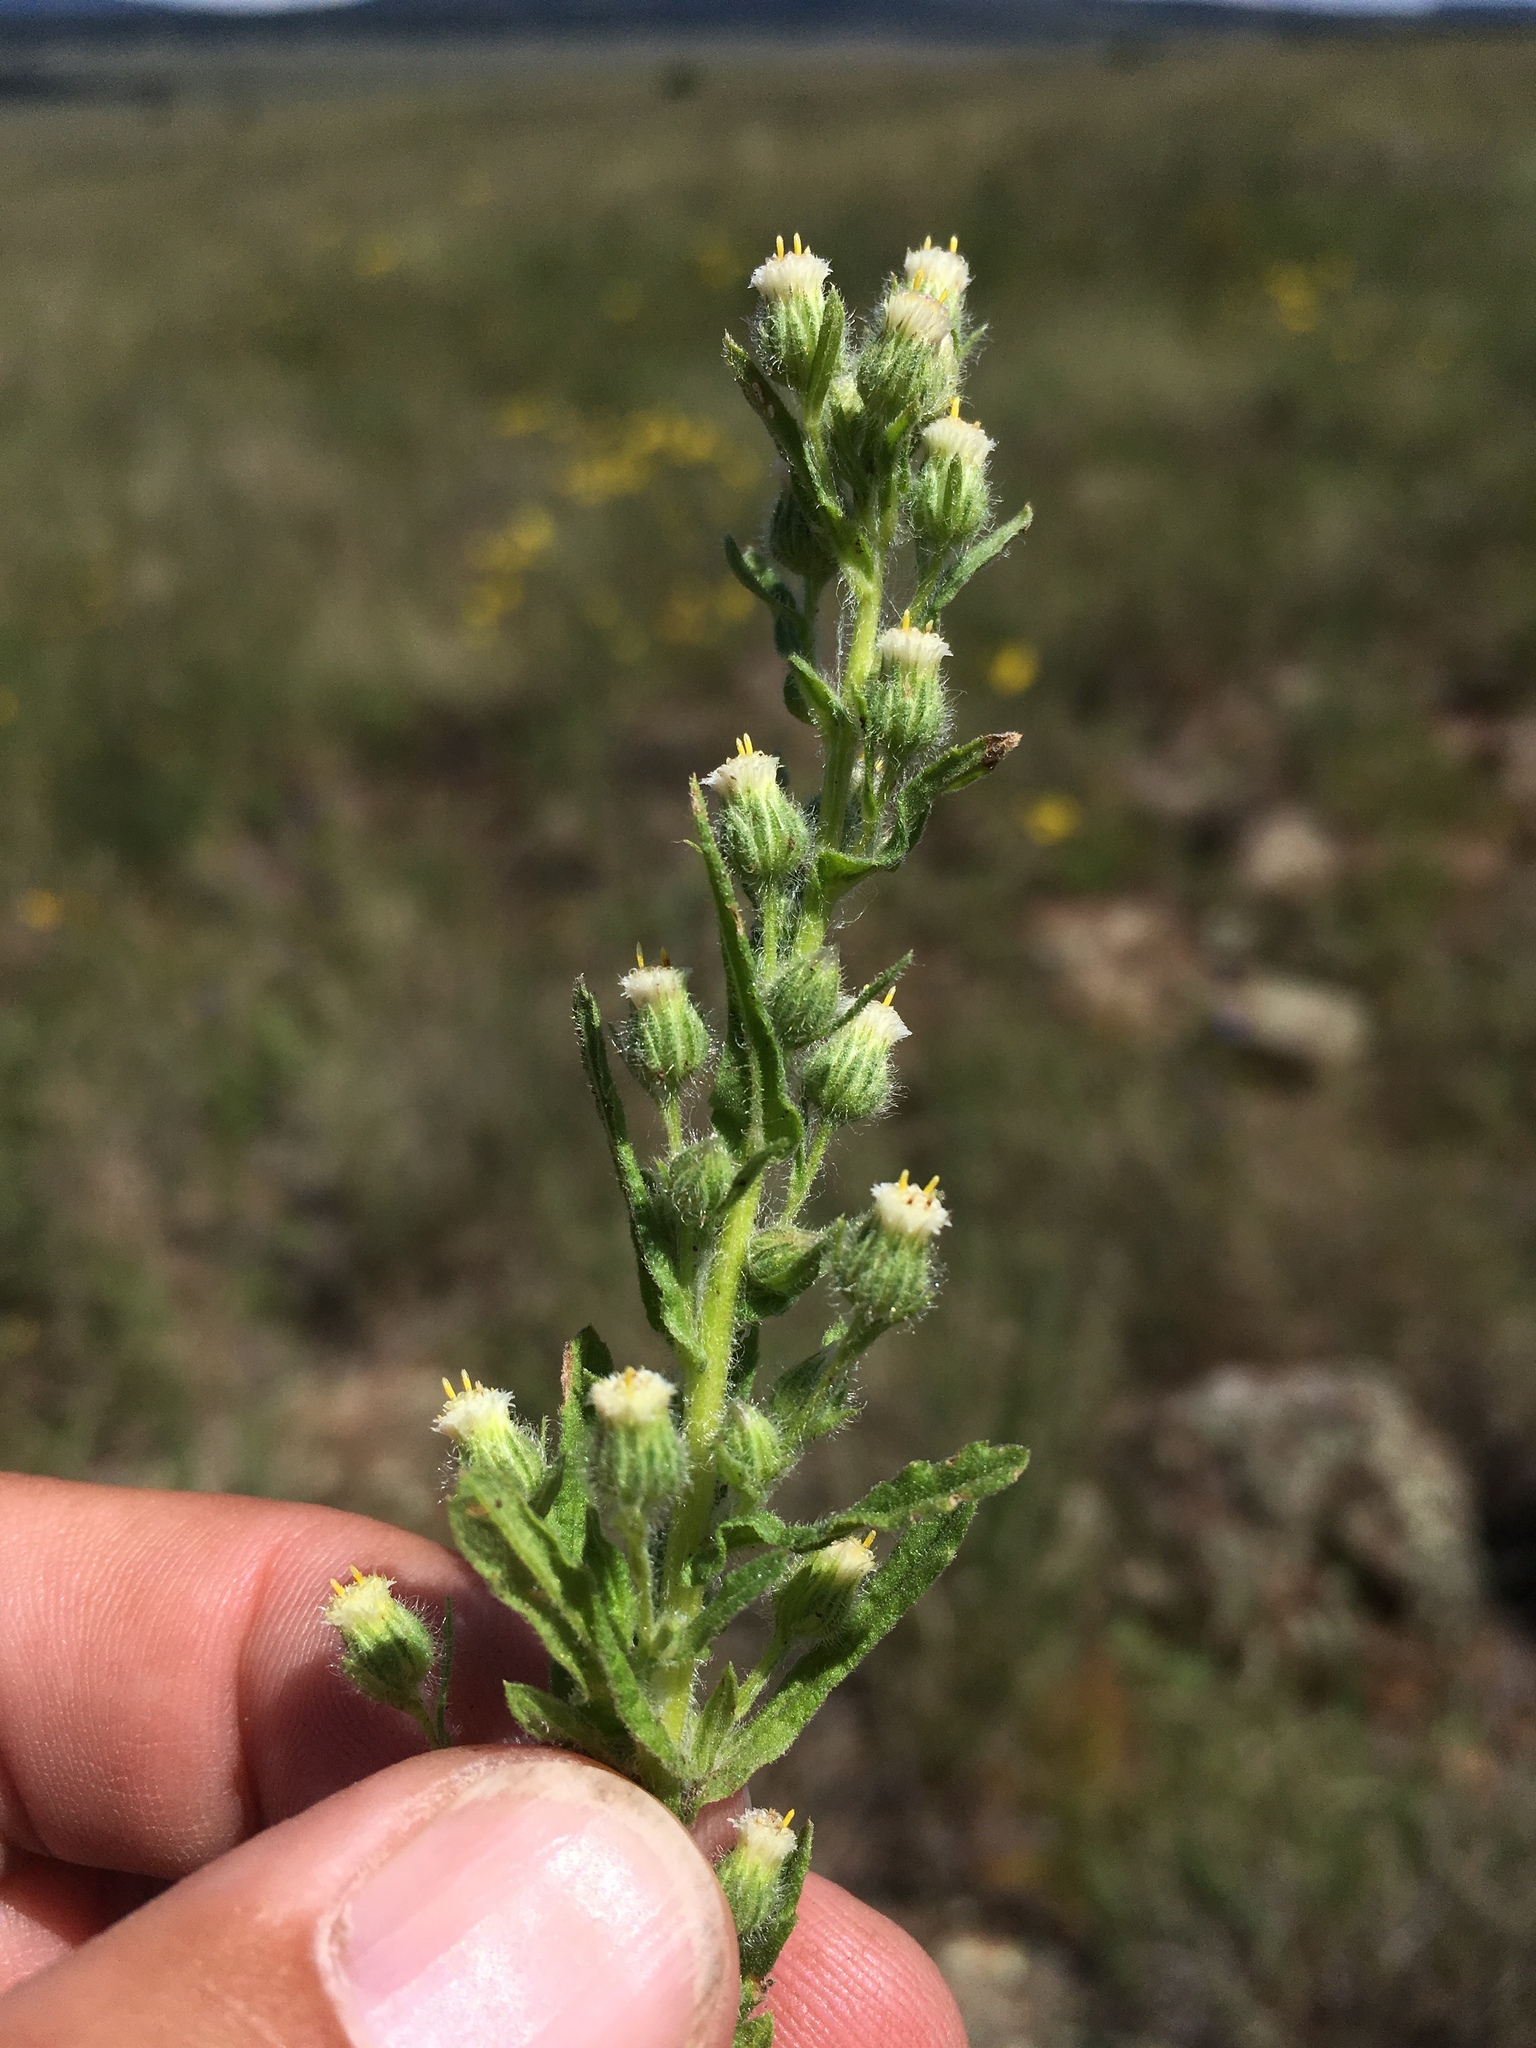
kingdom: Plantae
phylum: Tracheophyta
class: Magnoliopsida
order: Asterales
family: Asteraceae
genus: Laennecia
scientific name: Laennecia schiedeana
